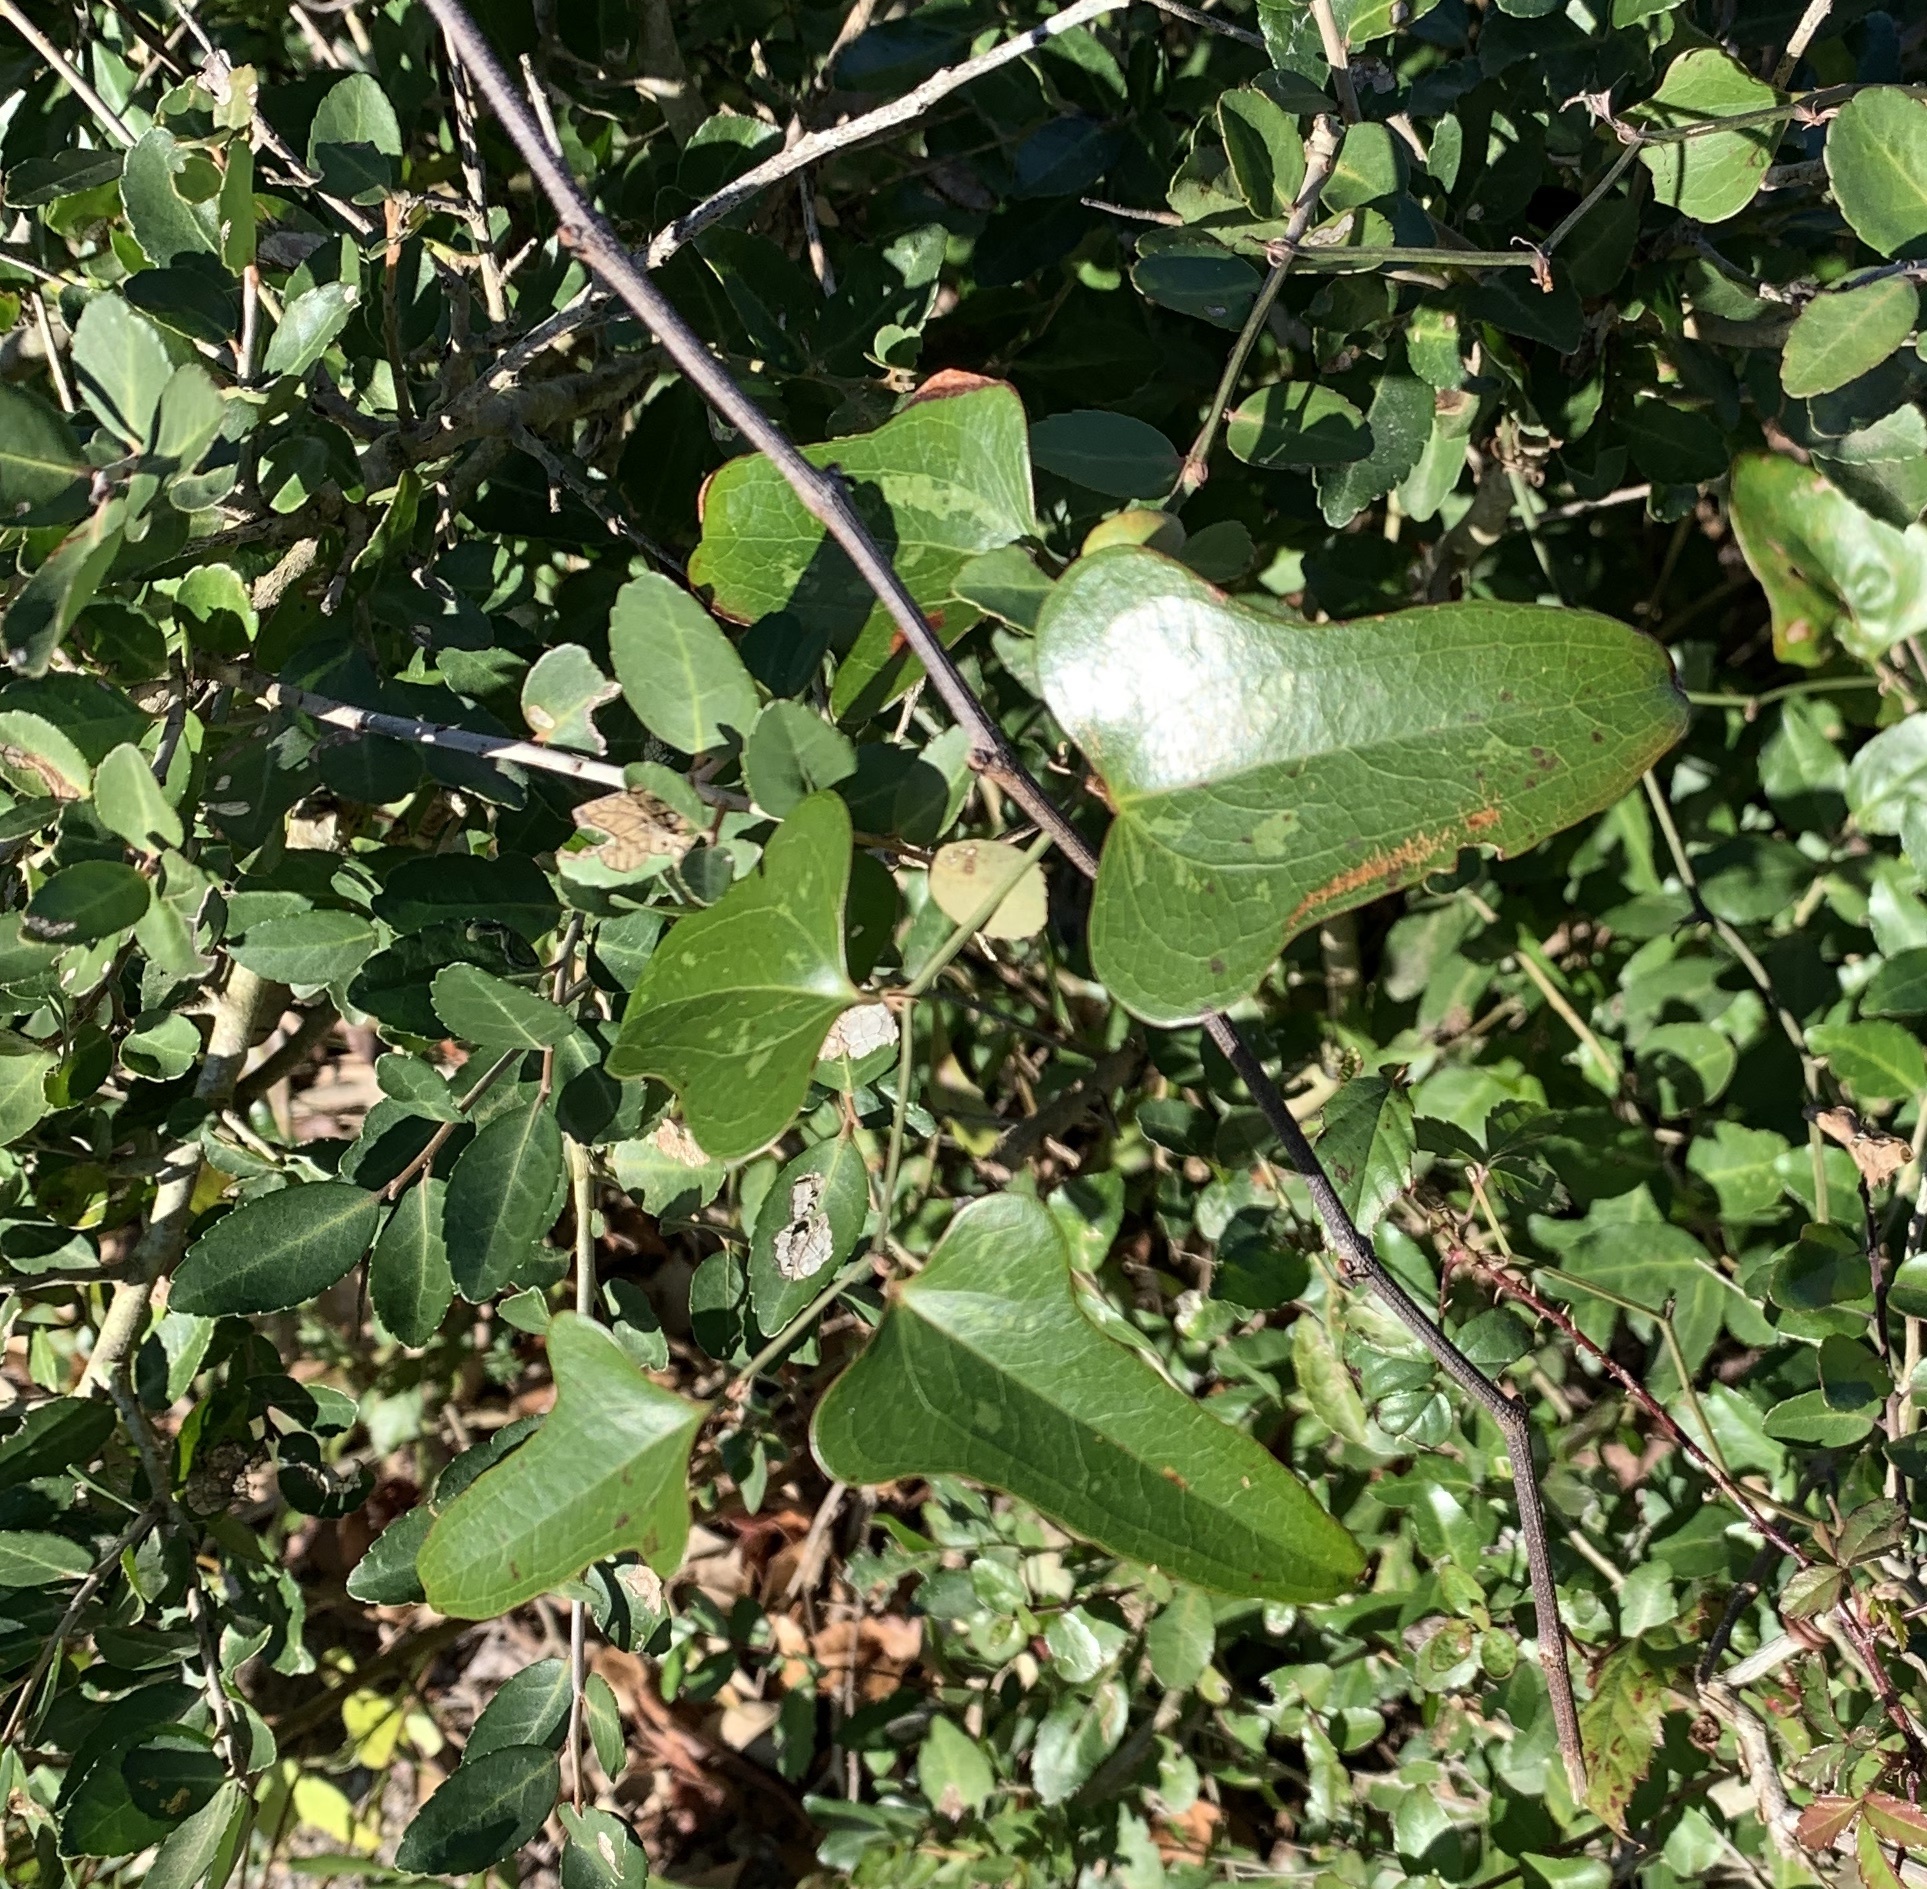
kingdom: Plantae
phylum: Tracheophyta
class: Liliopsida
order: Liliales
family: Smilacaceae
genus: Smilax
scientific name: Smilax bona-nox
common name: Catbrier
